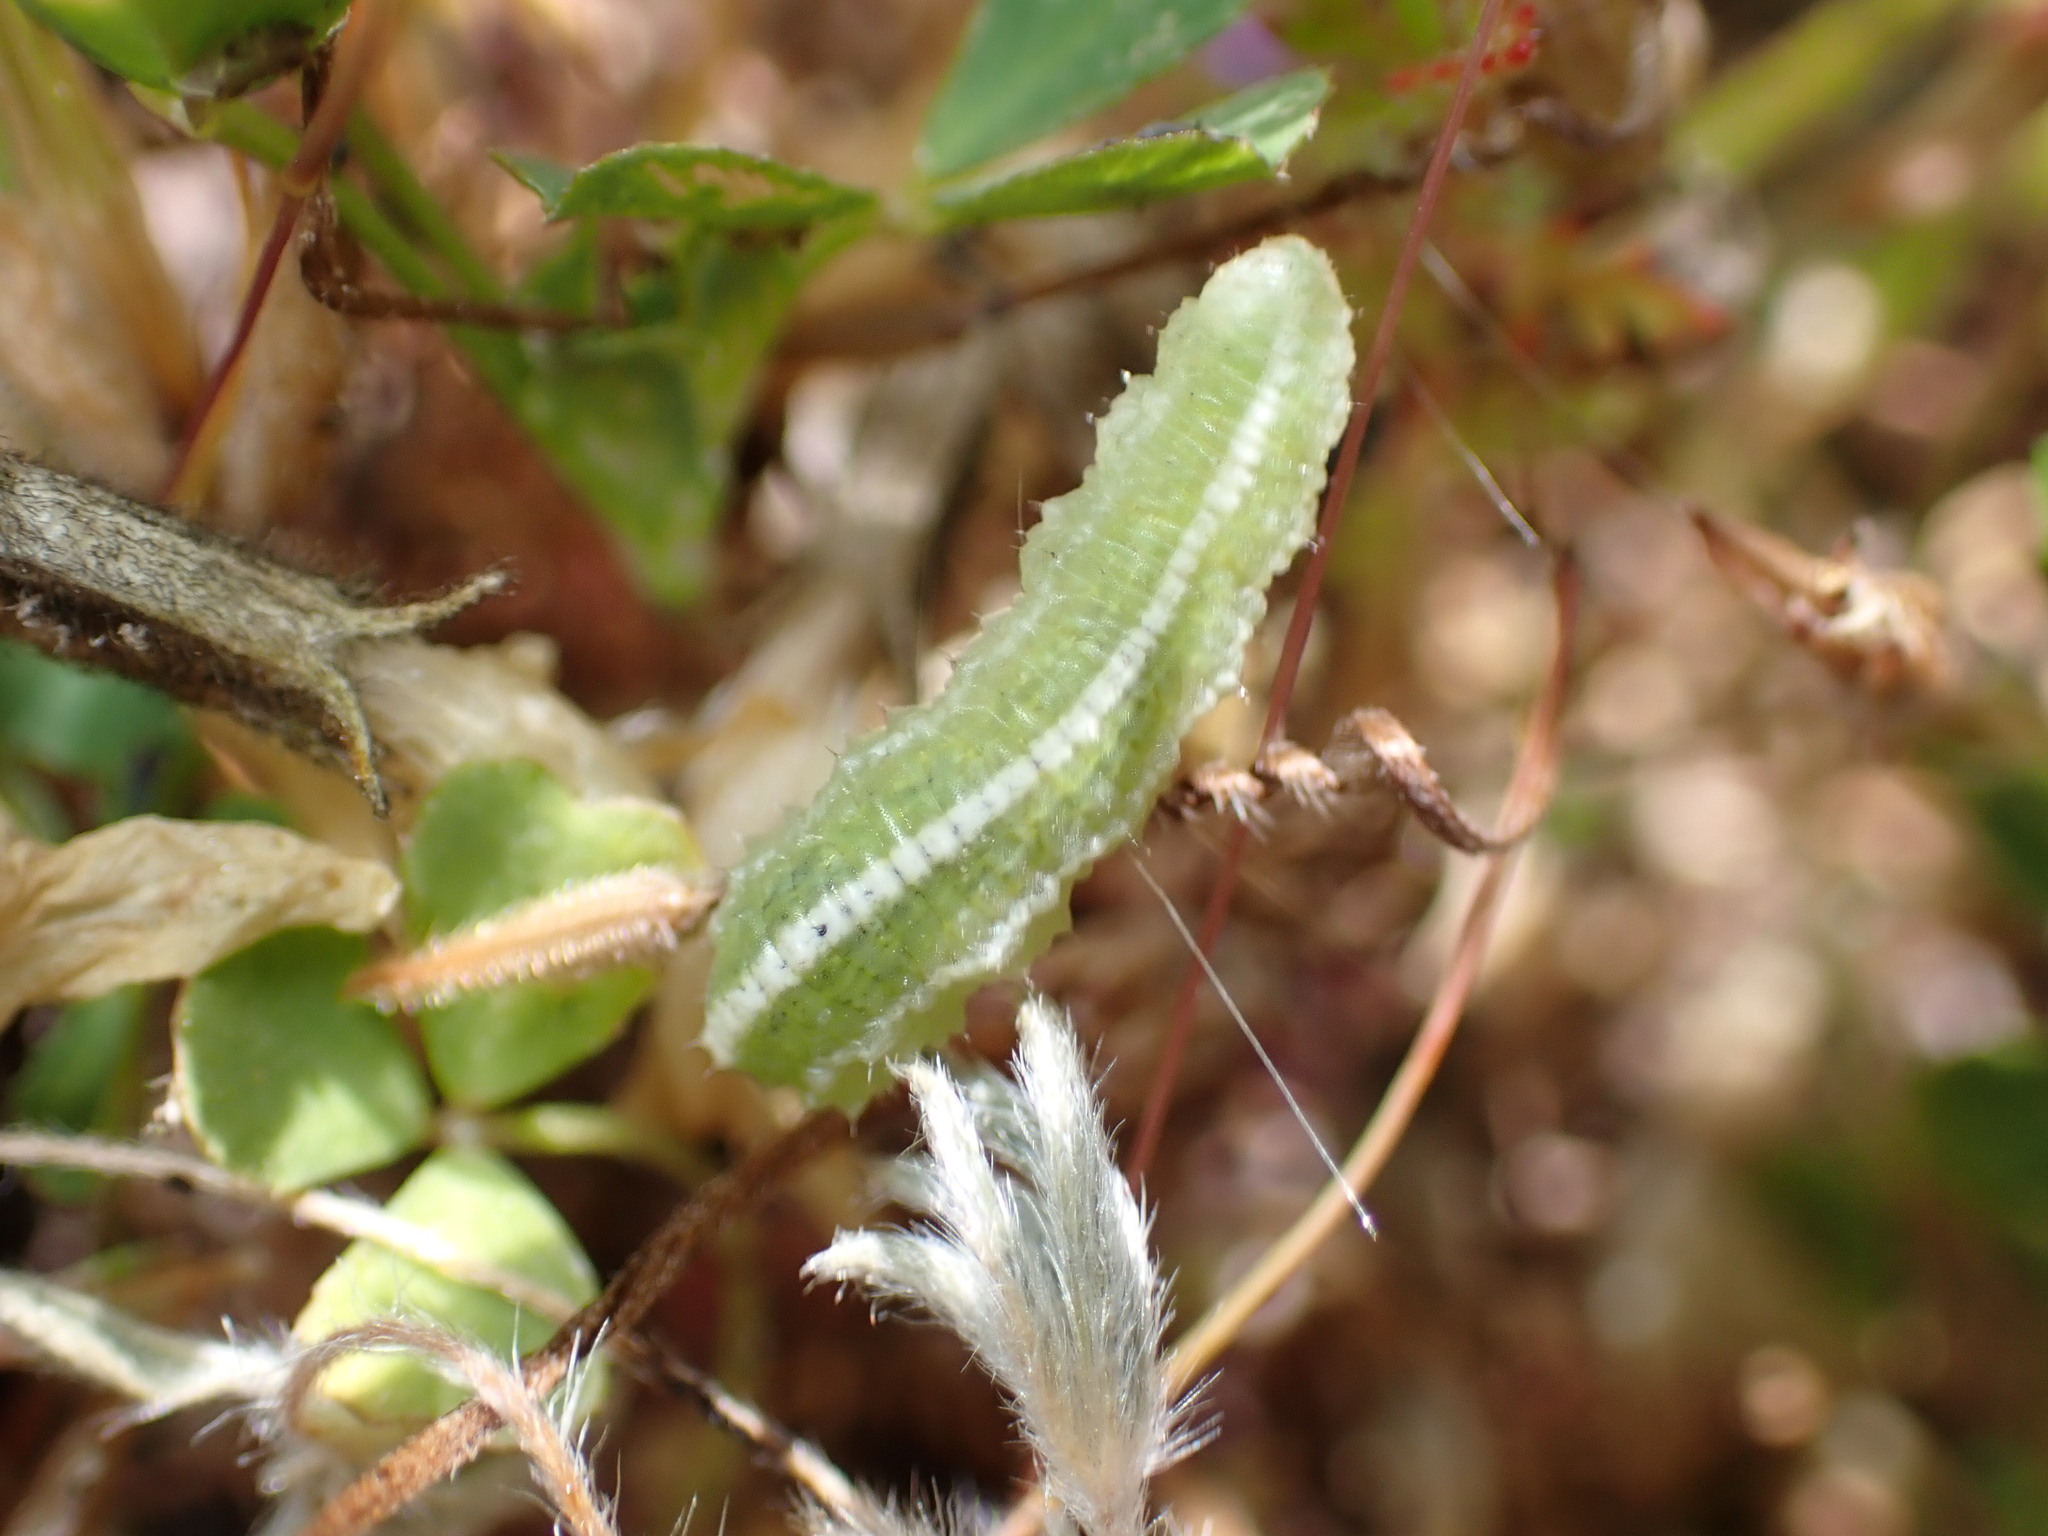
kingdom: Animalia
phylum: Arthropoda
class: Insecta
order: Diptera
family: Syrphidae
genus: Scaeva
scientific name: Scaeva affinis
